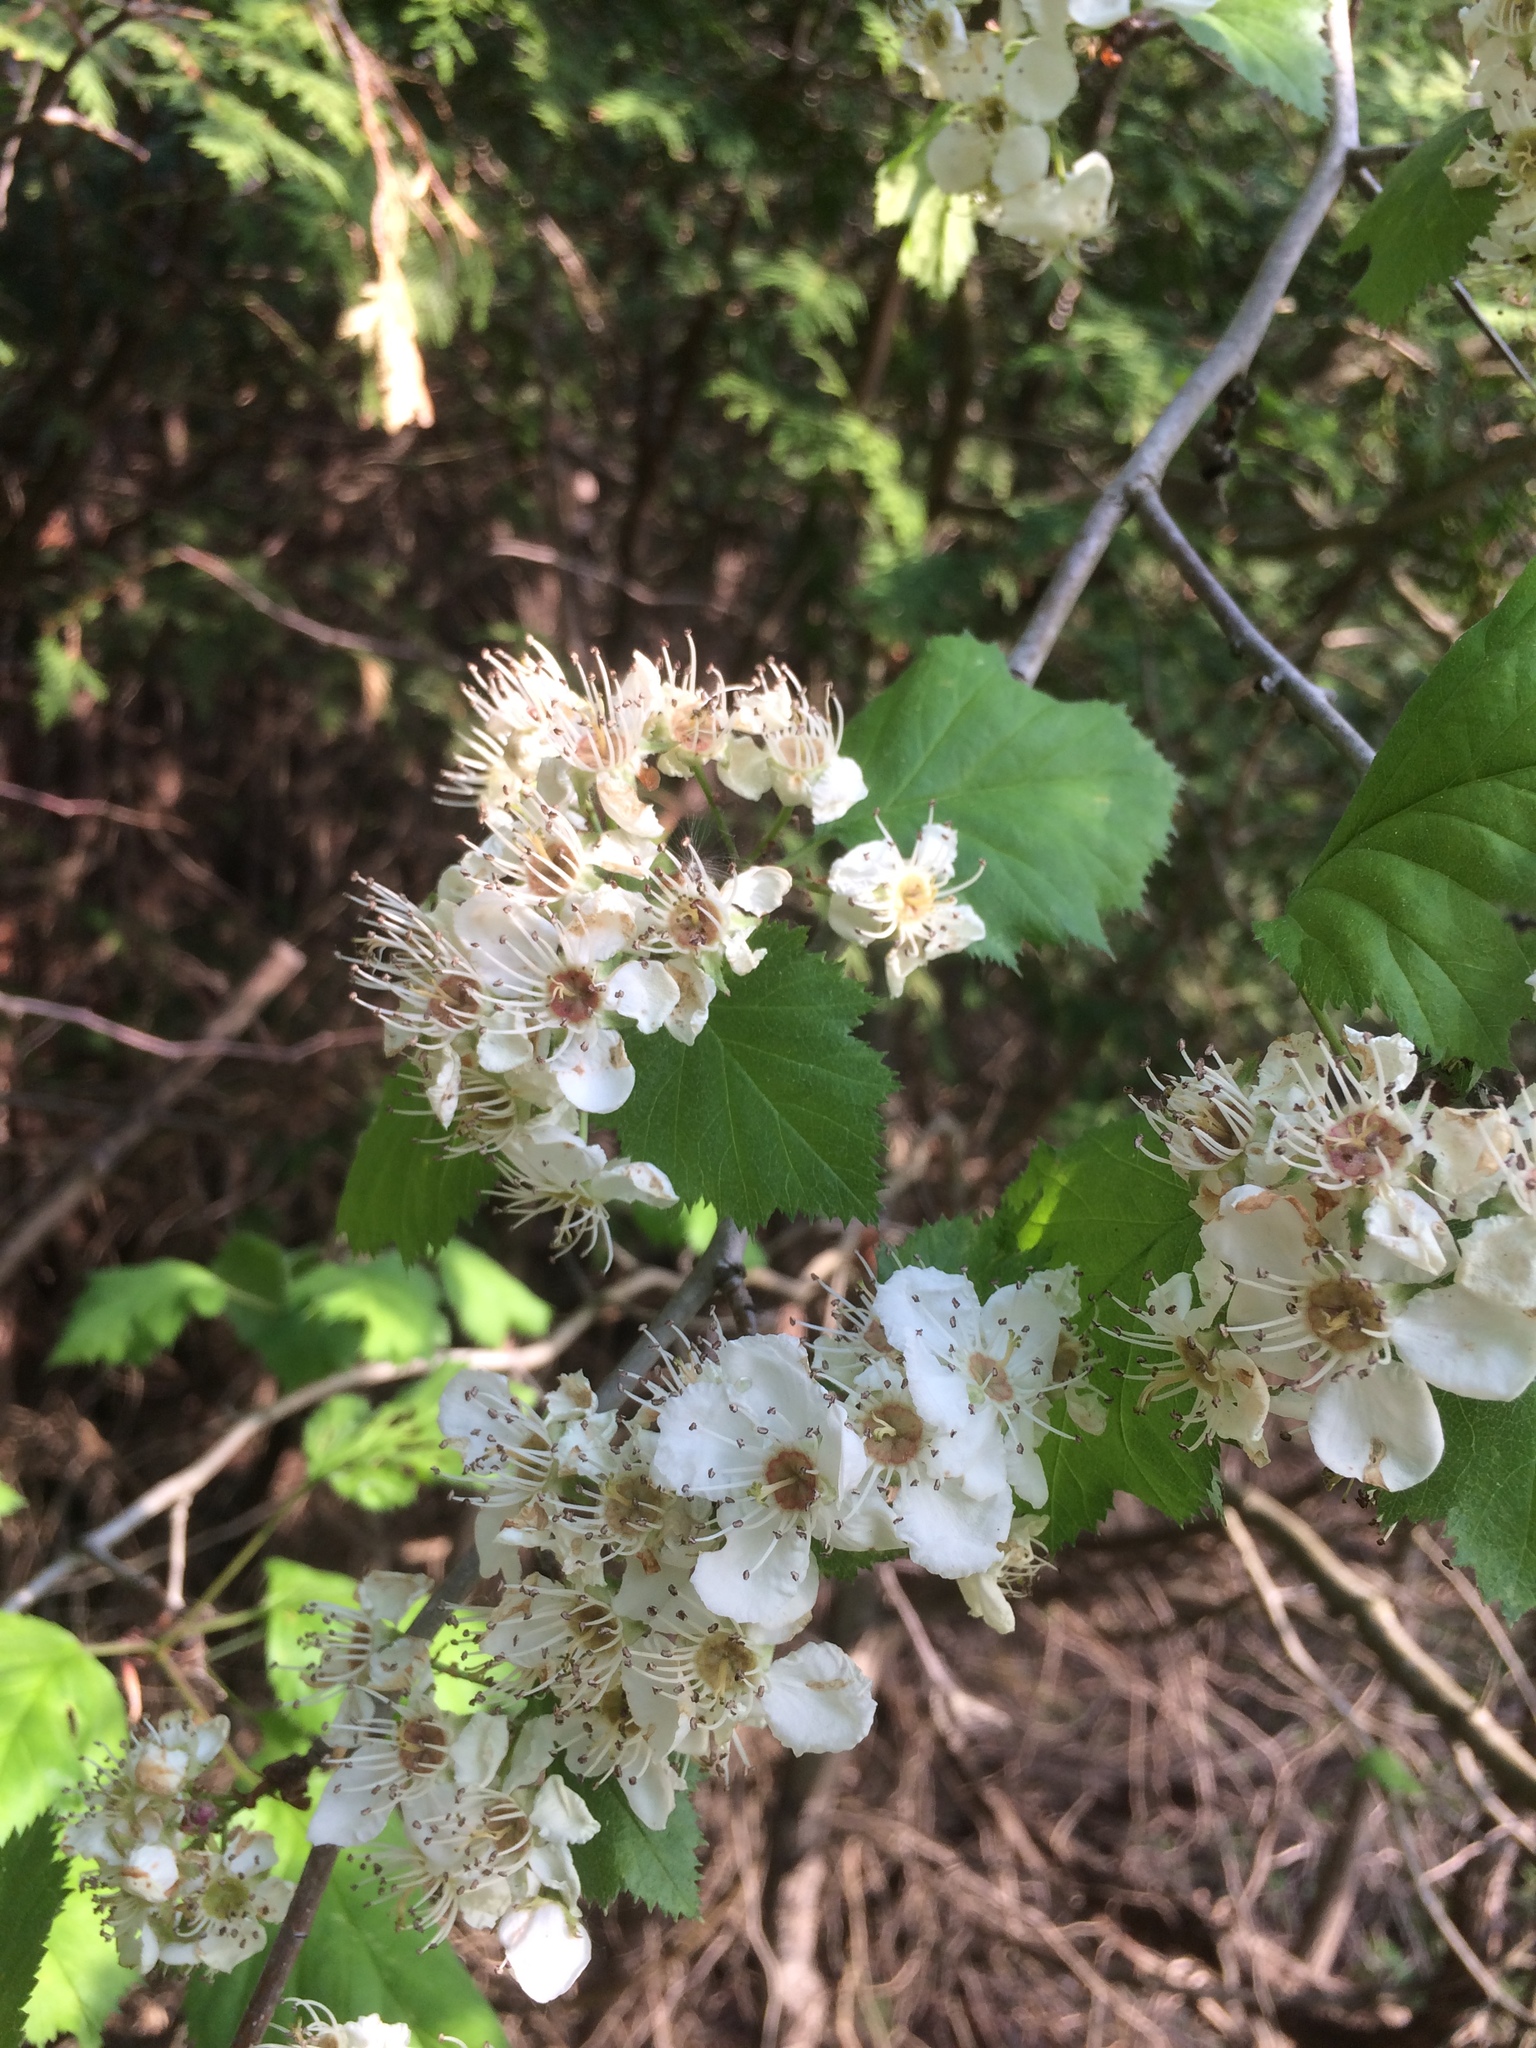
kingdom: Plantae
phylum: Tracheophyta
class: Magnoliopsida
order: Rosales
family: Rosaceae
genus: Crataegus
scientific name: Crataegus coccinioides
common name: Large-flowered cockspurthorn
